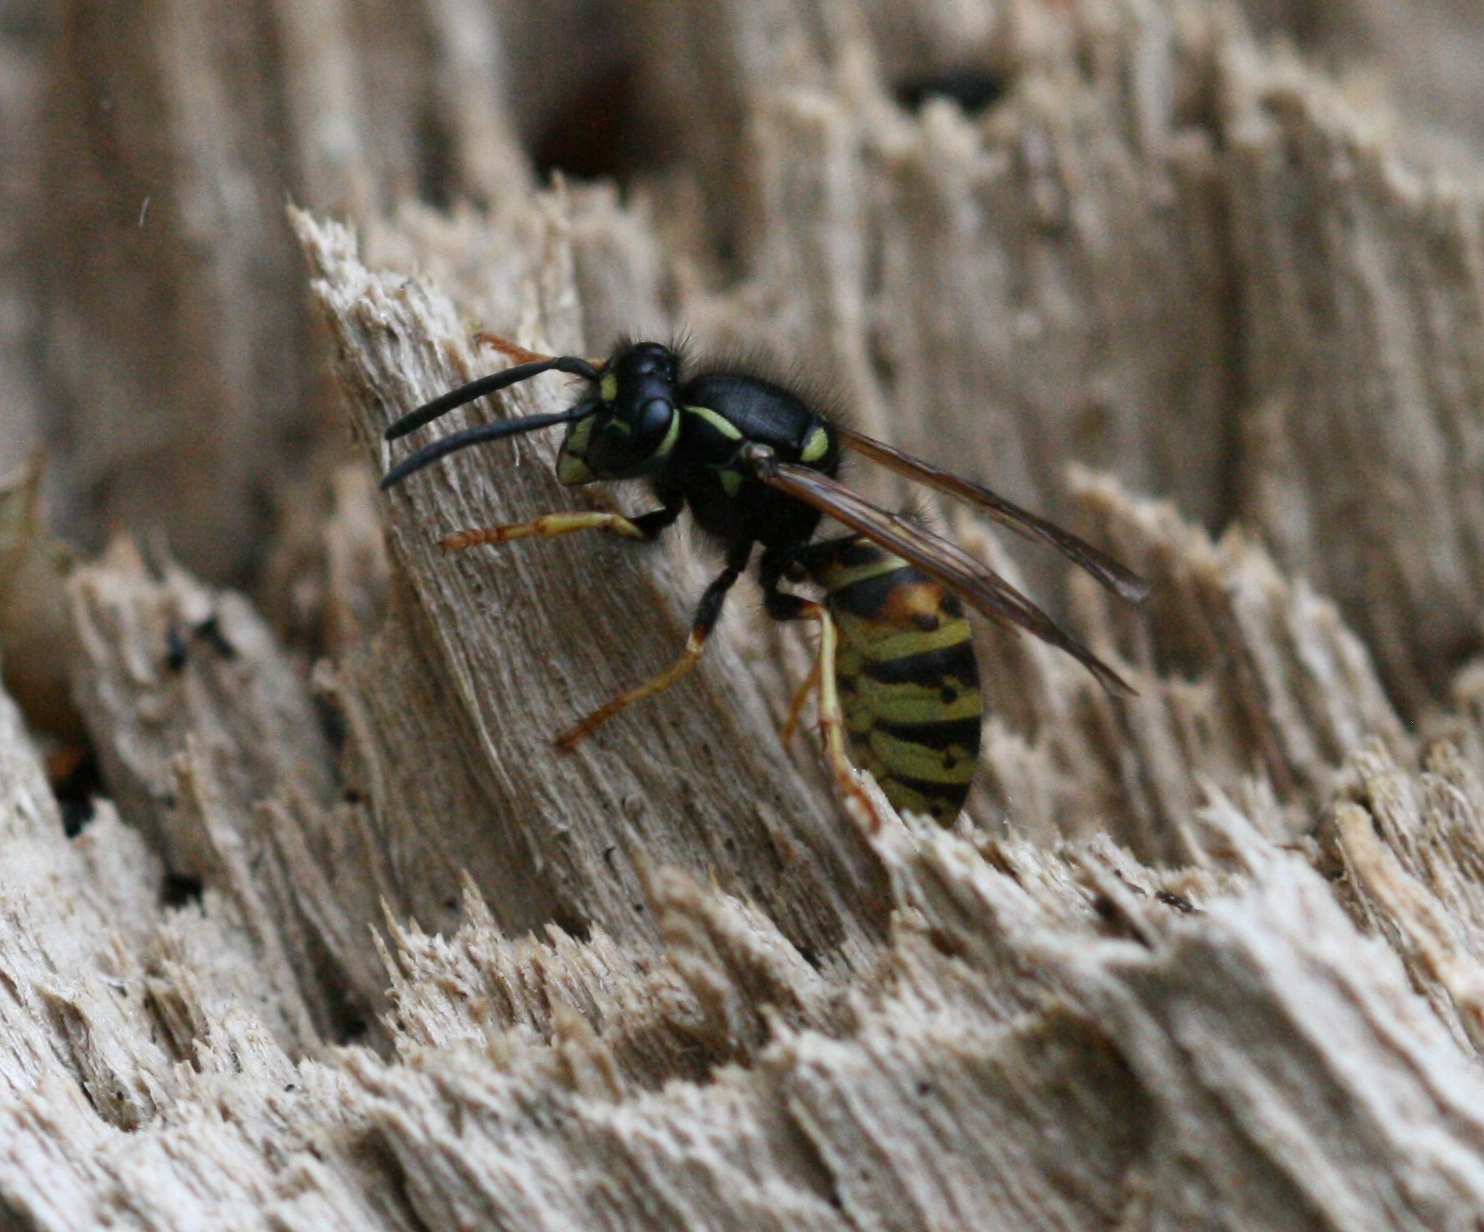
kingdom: Animalia
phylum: Arthropoda
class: Insecta
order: Hymenoptera
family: Vespidae
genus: Vespula
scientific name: Vespula rufa
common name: Red wasp
